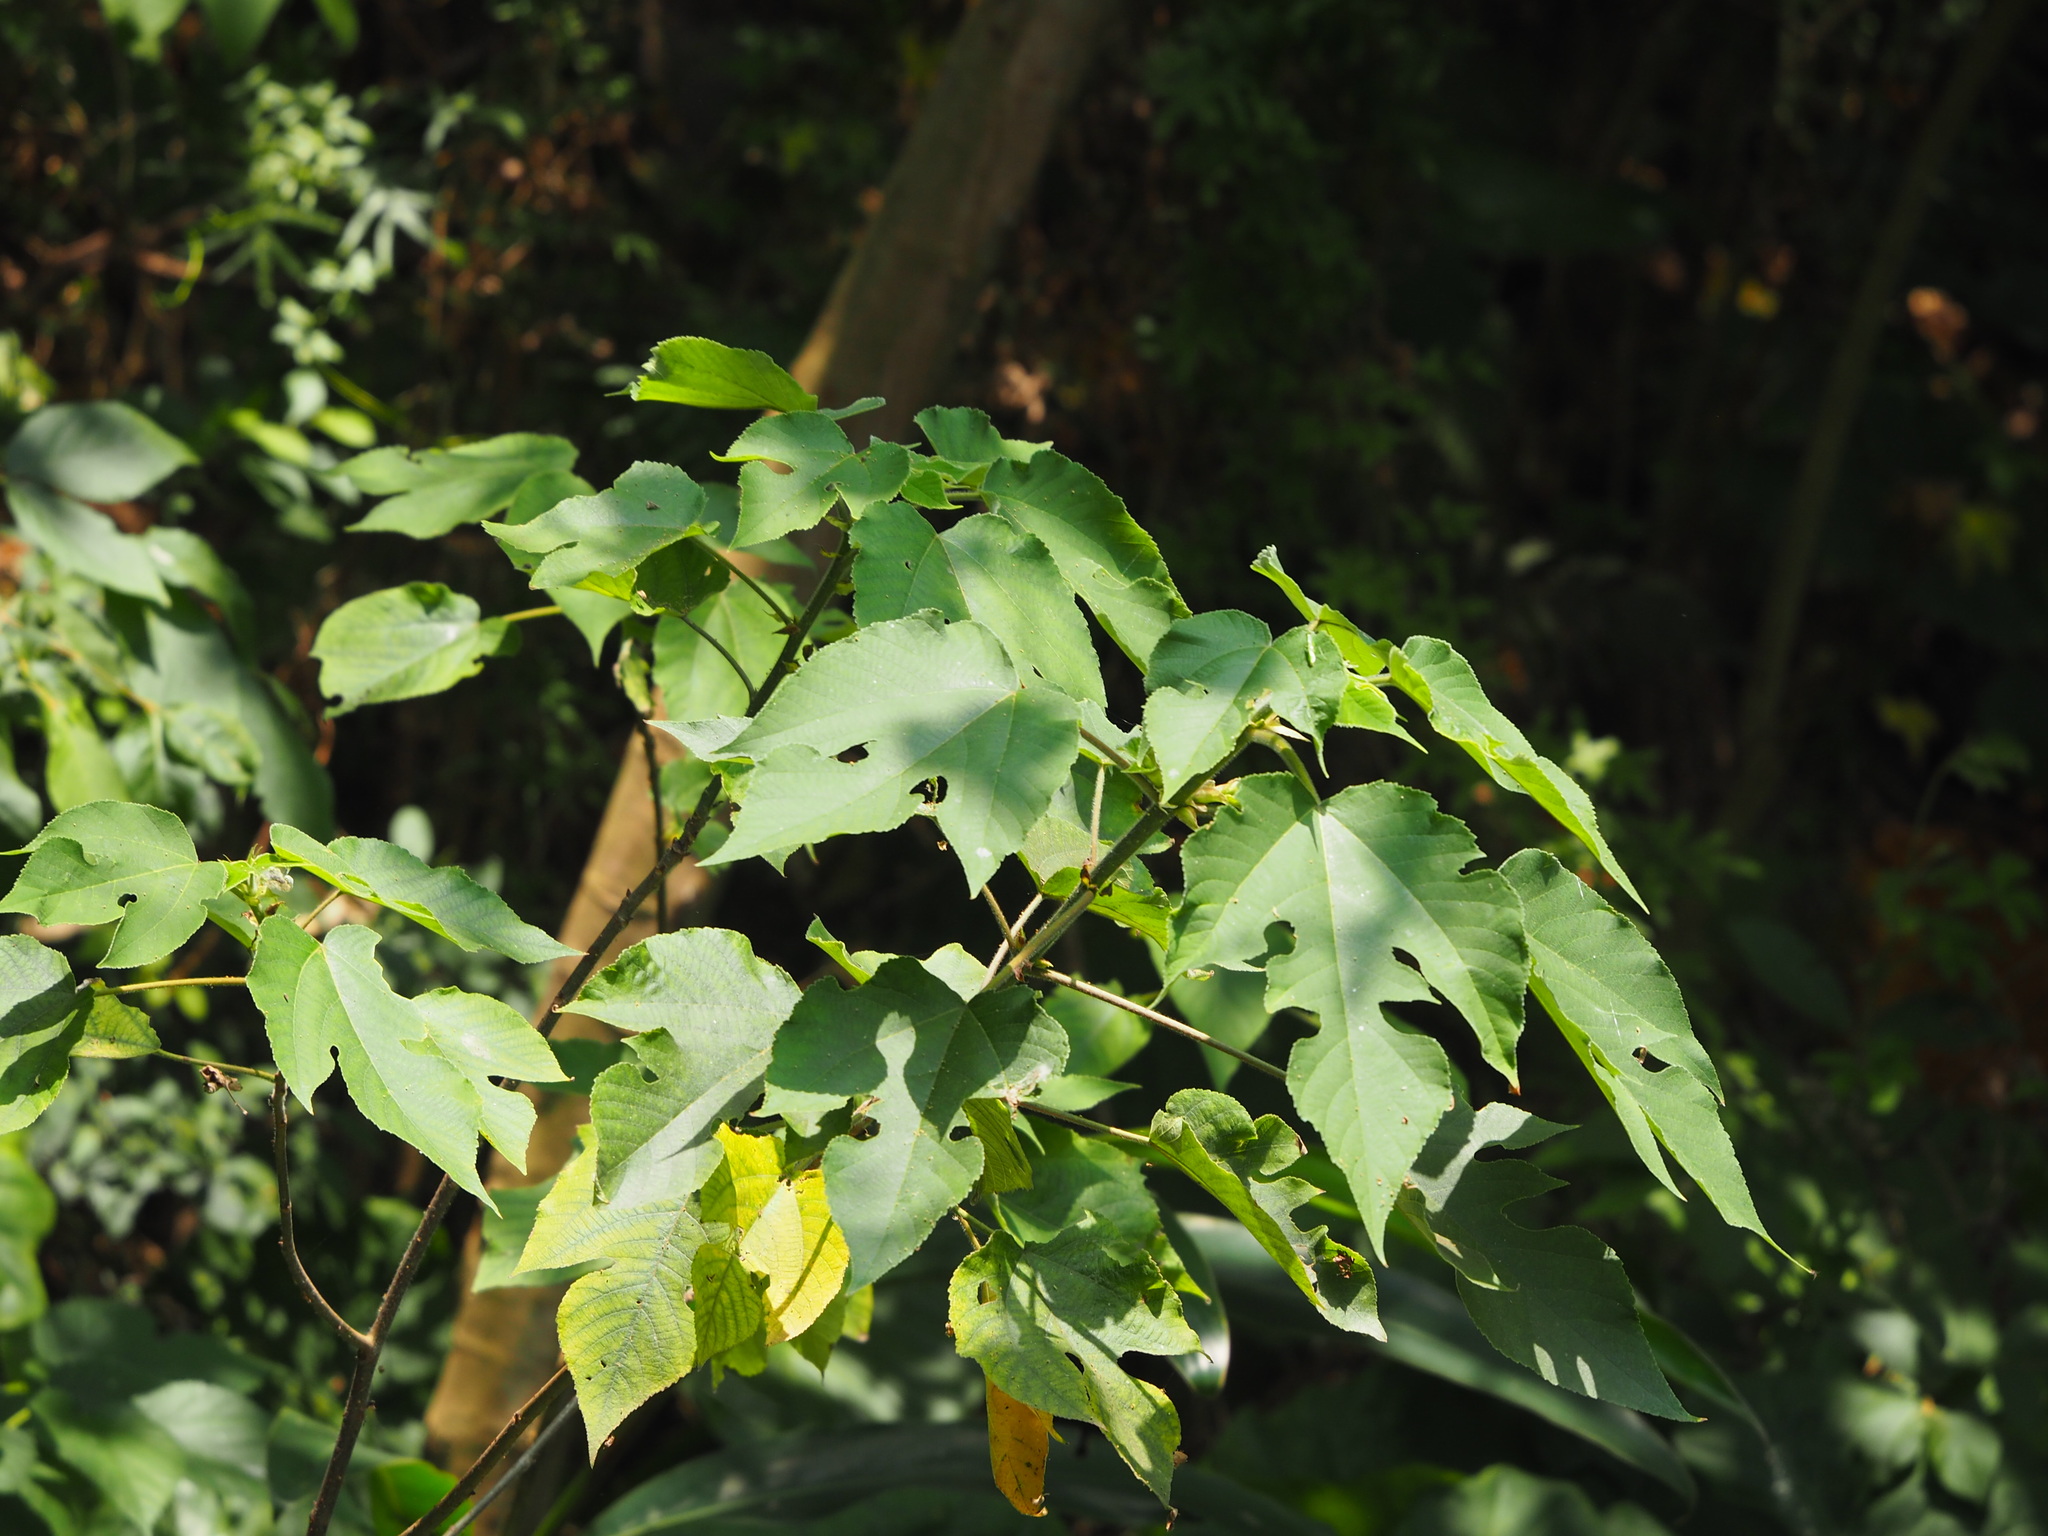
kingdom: Plantae
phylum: Tracheophyta
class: Magnoliopsida
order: Rosales
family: Moraceae
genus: Broussonetia
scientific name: Broussonetia papyrifera
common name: Paper mulberry
